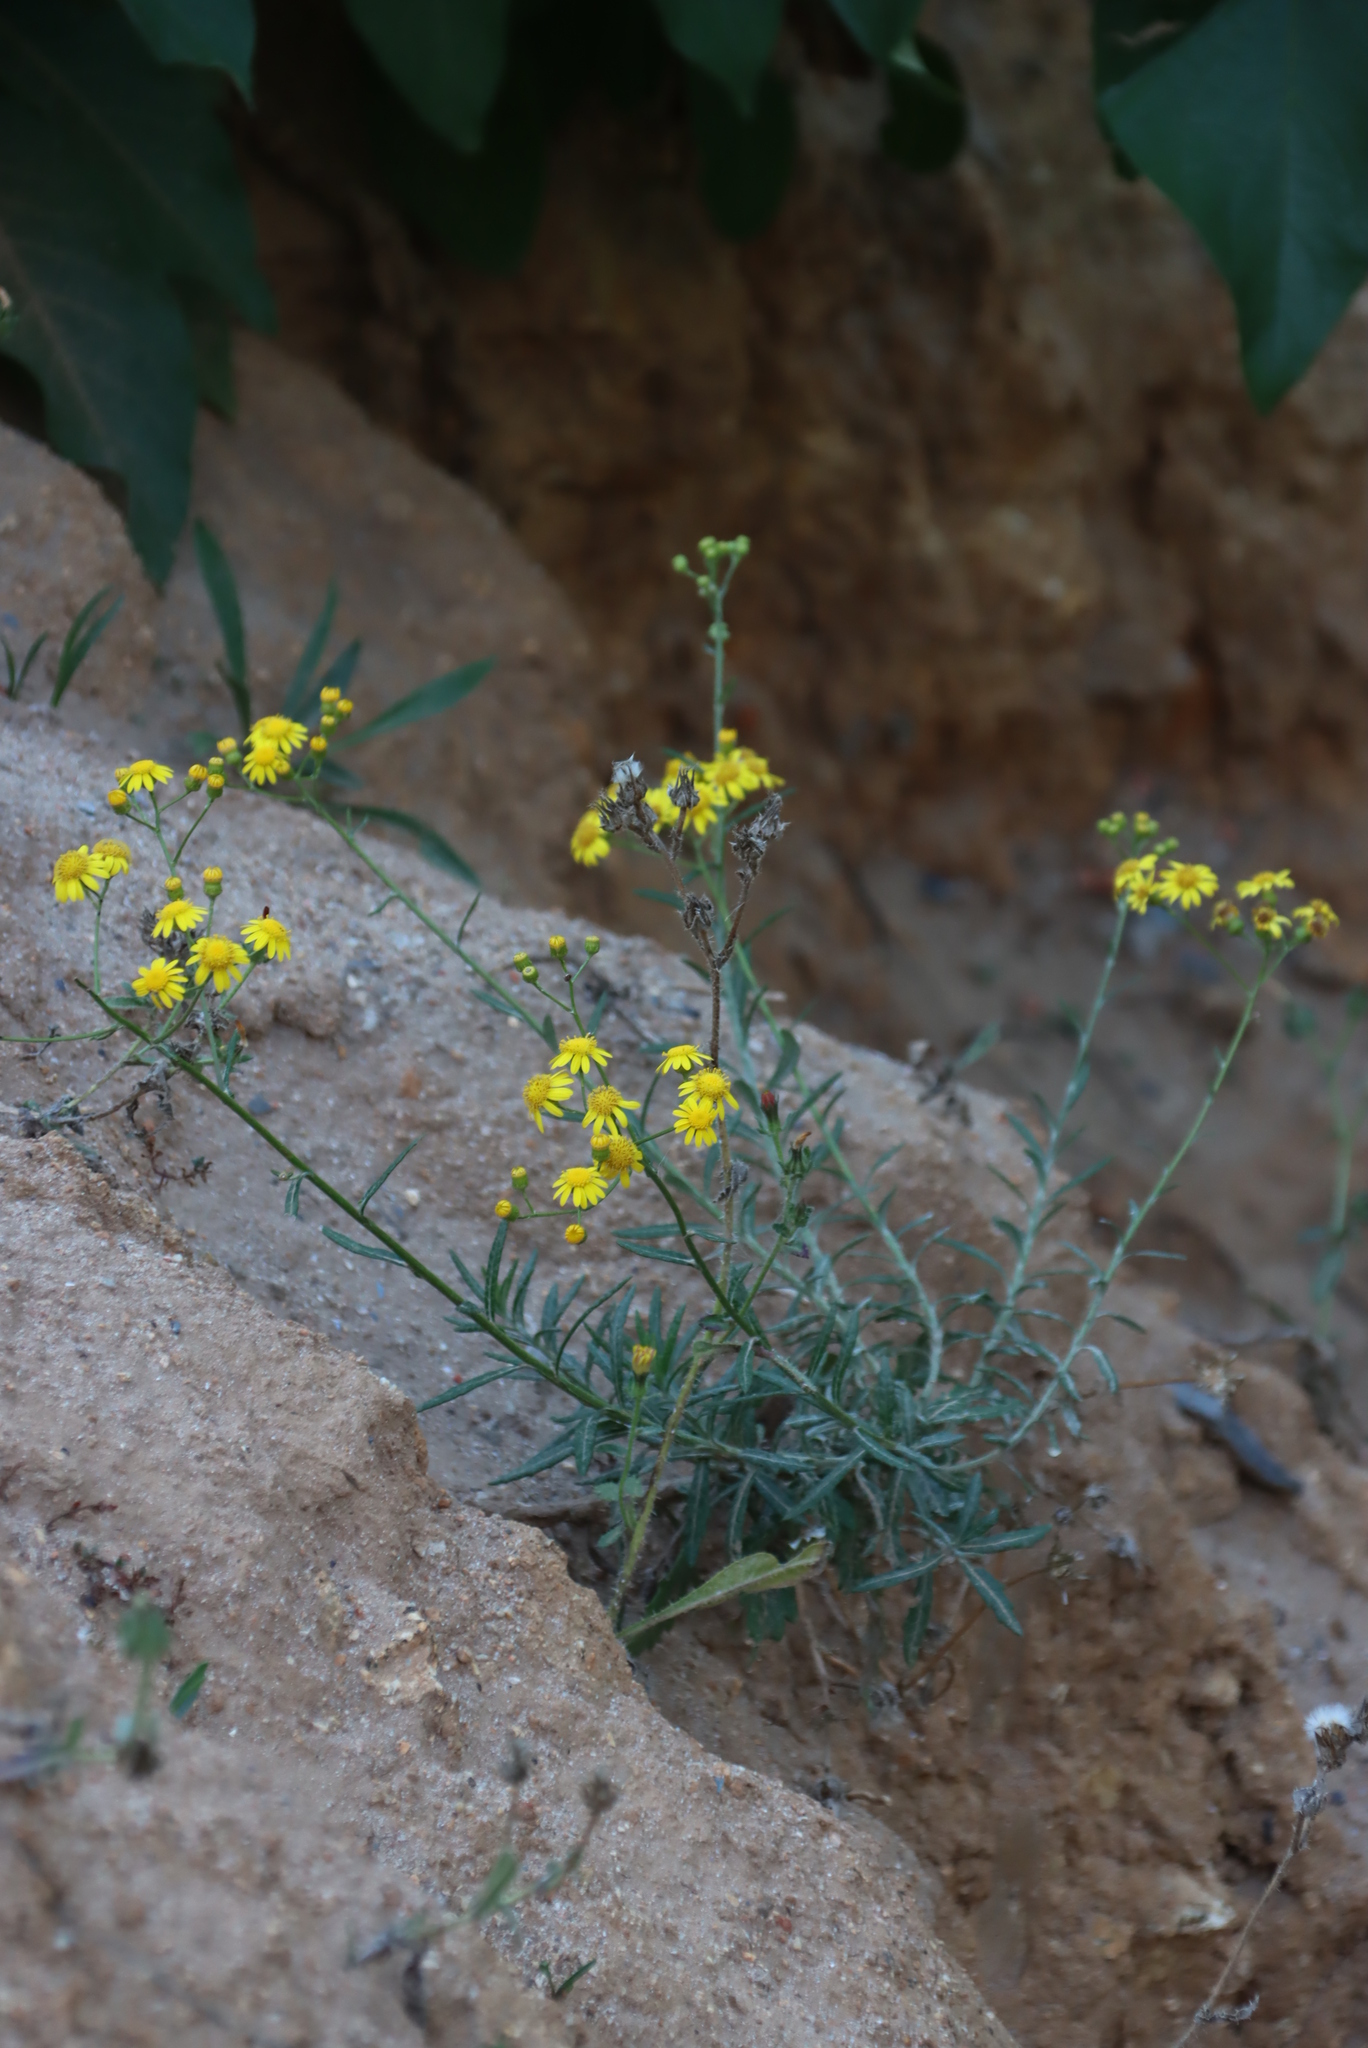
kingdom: Plantae
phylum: Tracheophyta
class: Magnoliopsida
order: Asterales
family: Asteraceae
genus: Senecio
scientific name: Senecio pterophorus
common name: Shoddy ragwort
